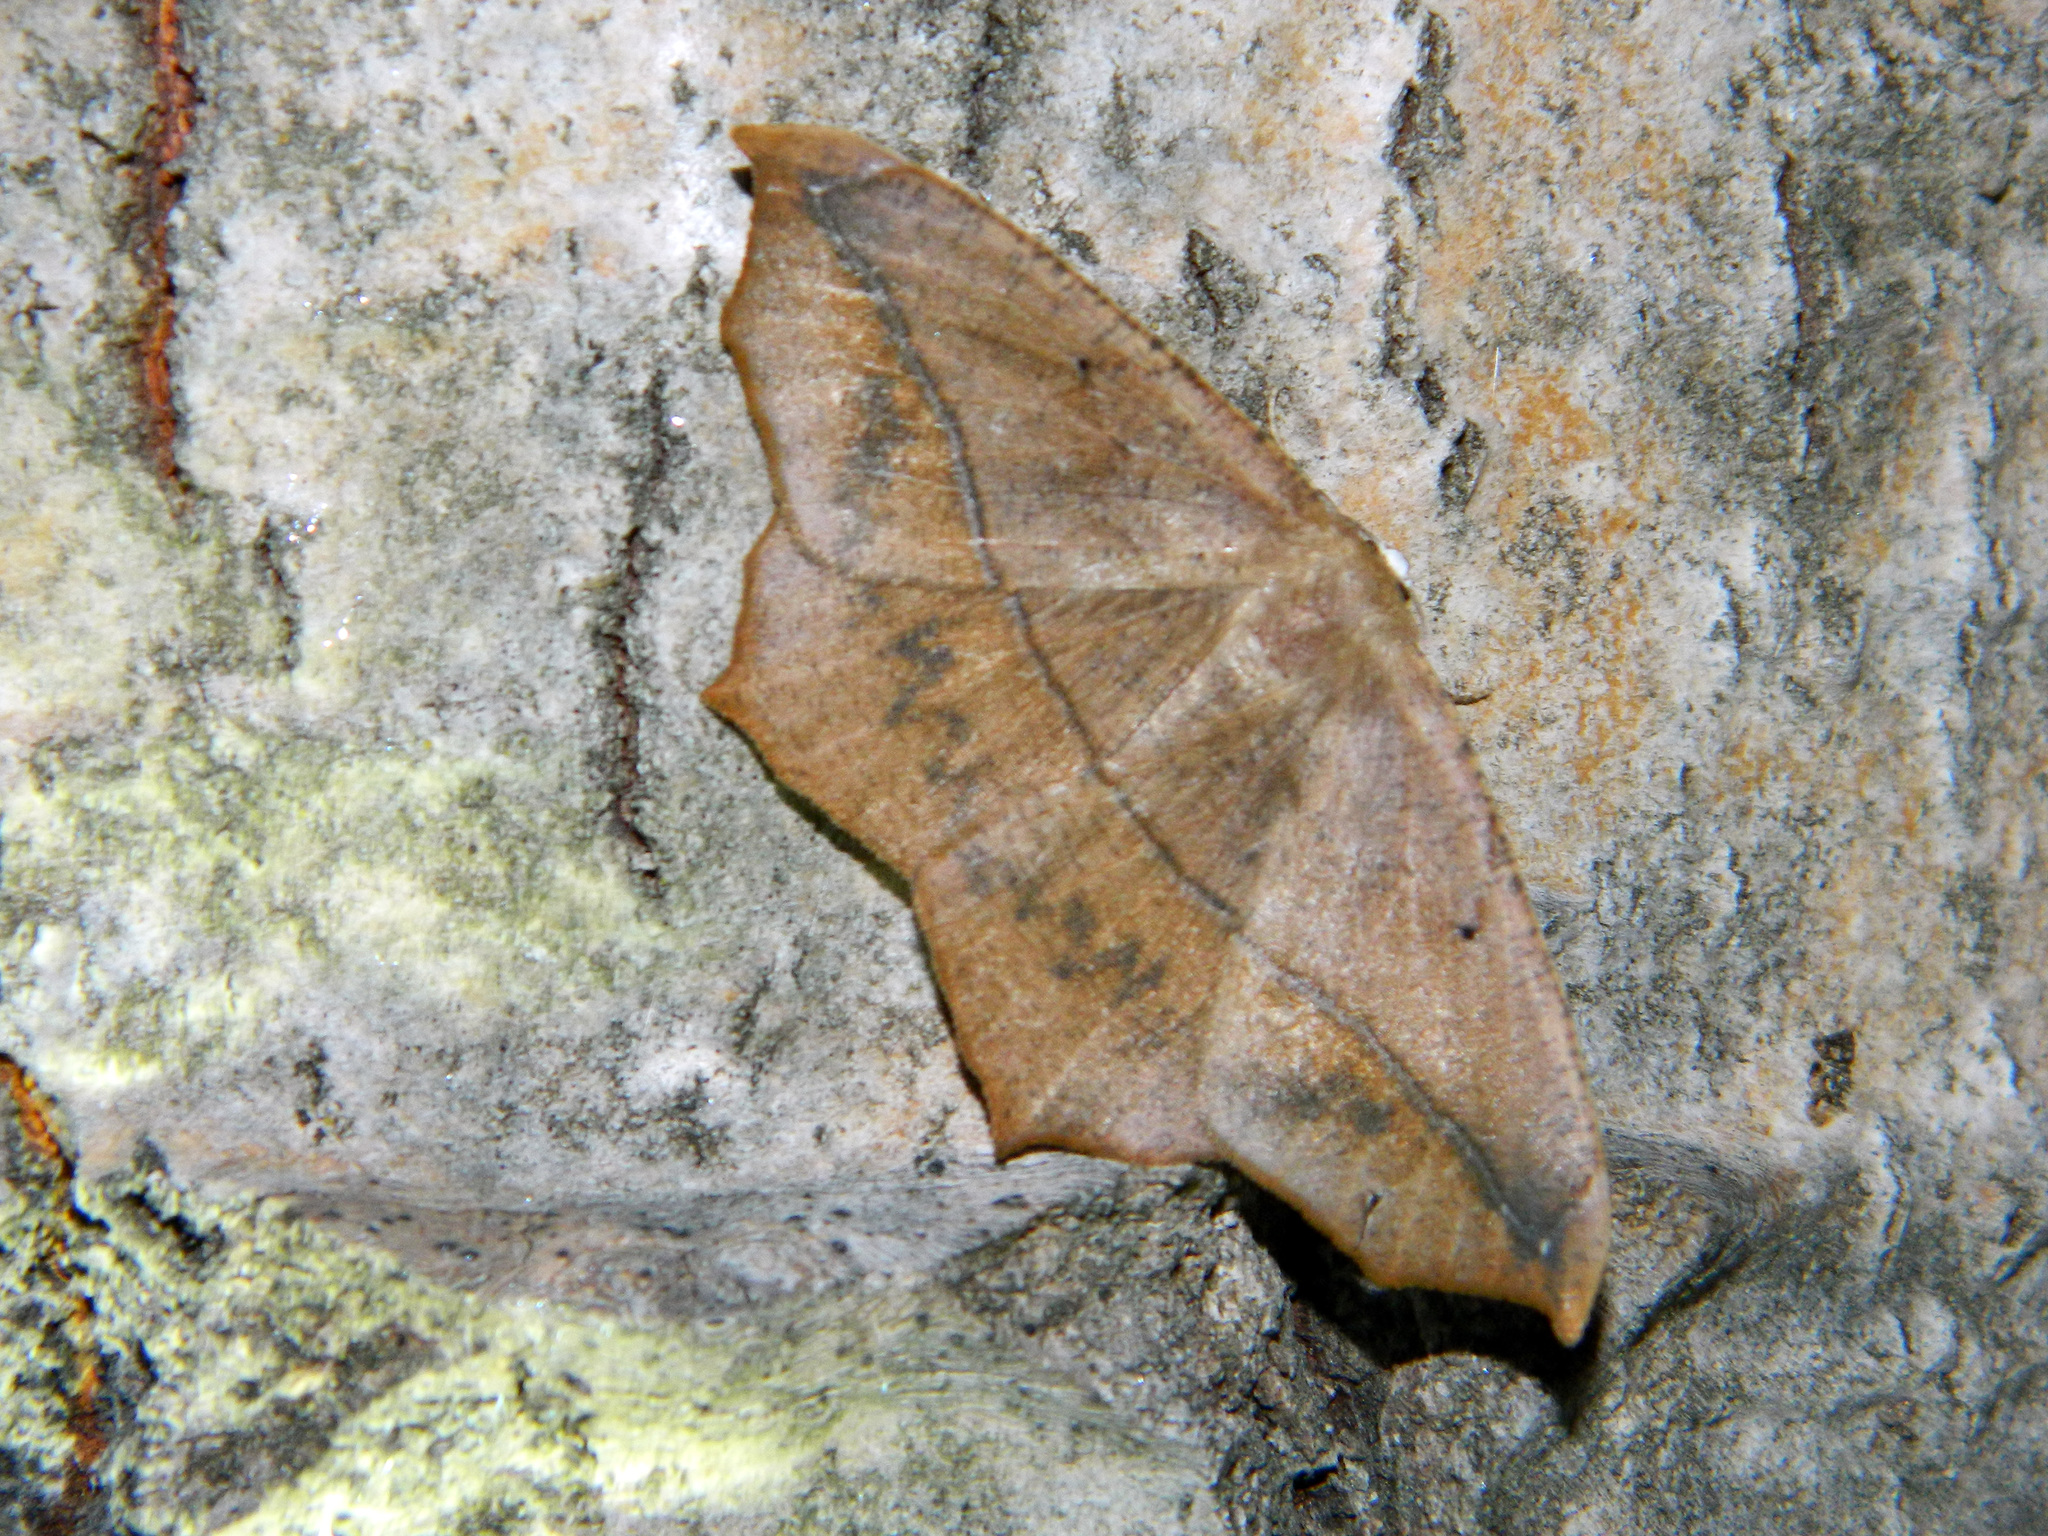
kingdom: Animalia
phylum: Arthropoda
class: Insecta
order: Lepidoptera
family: Geometridae
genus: Prochoerodes
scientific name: Prochoerodes lineola
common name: Large maple spanworm
